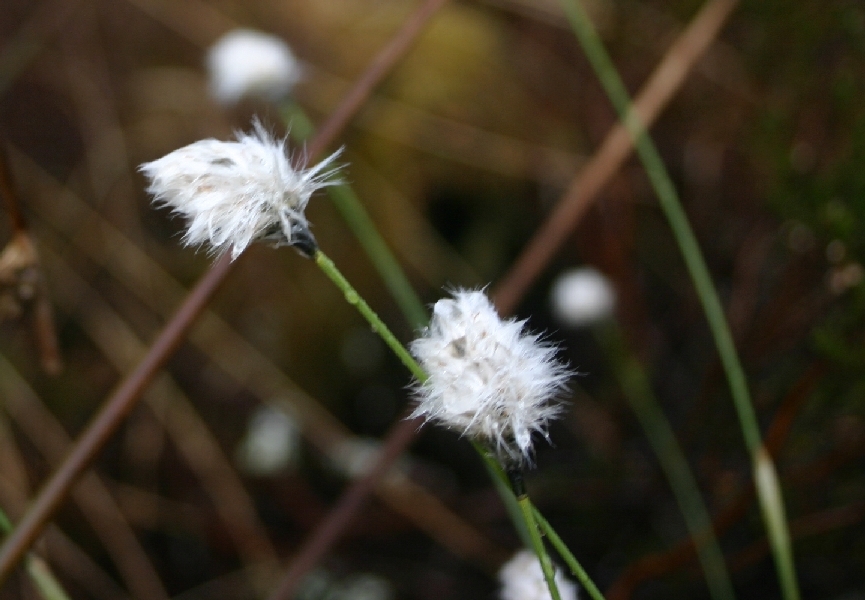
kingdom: Plantae
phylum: Tracheophyta
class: Liliopsida
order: Poales
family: Cyperaceae
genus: Eriophorum
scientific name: Eriophorum vaginatum
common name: Hare's-tail cottongrass
